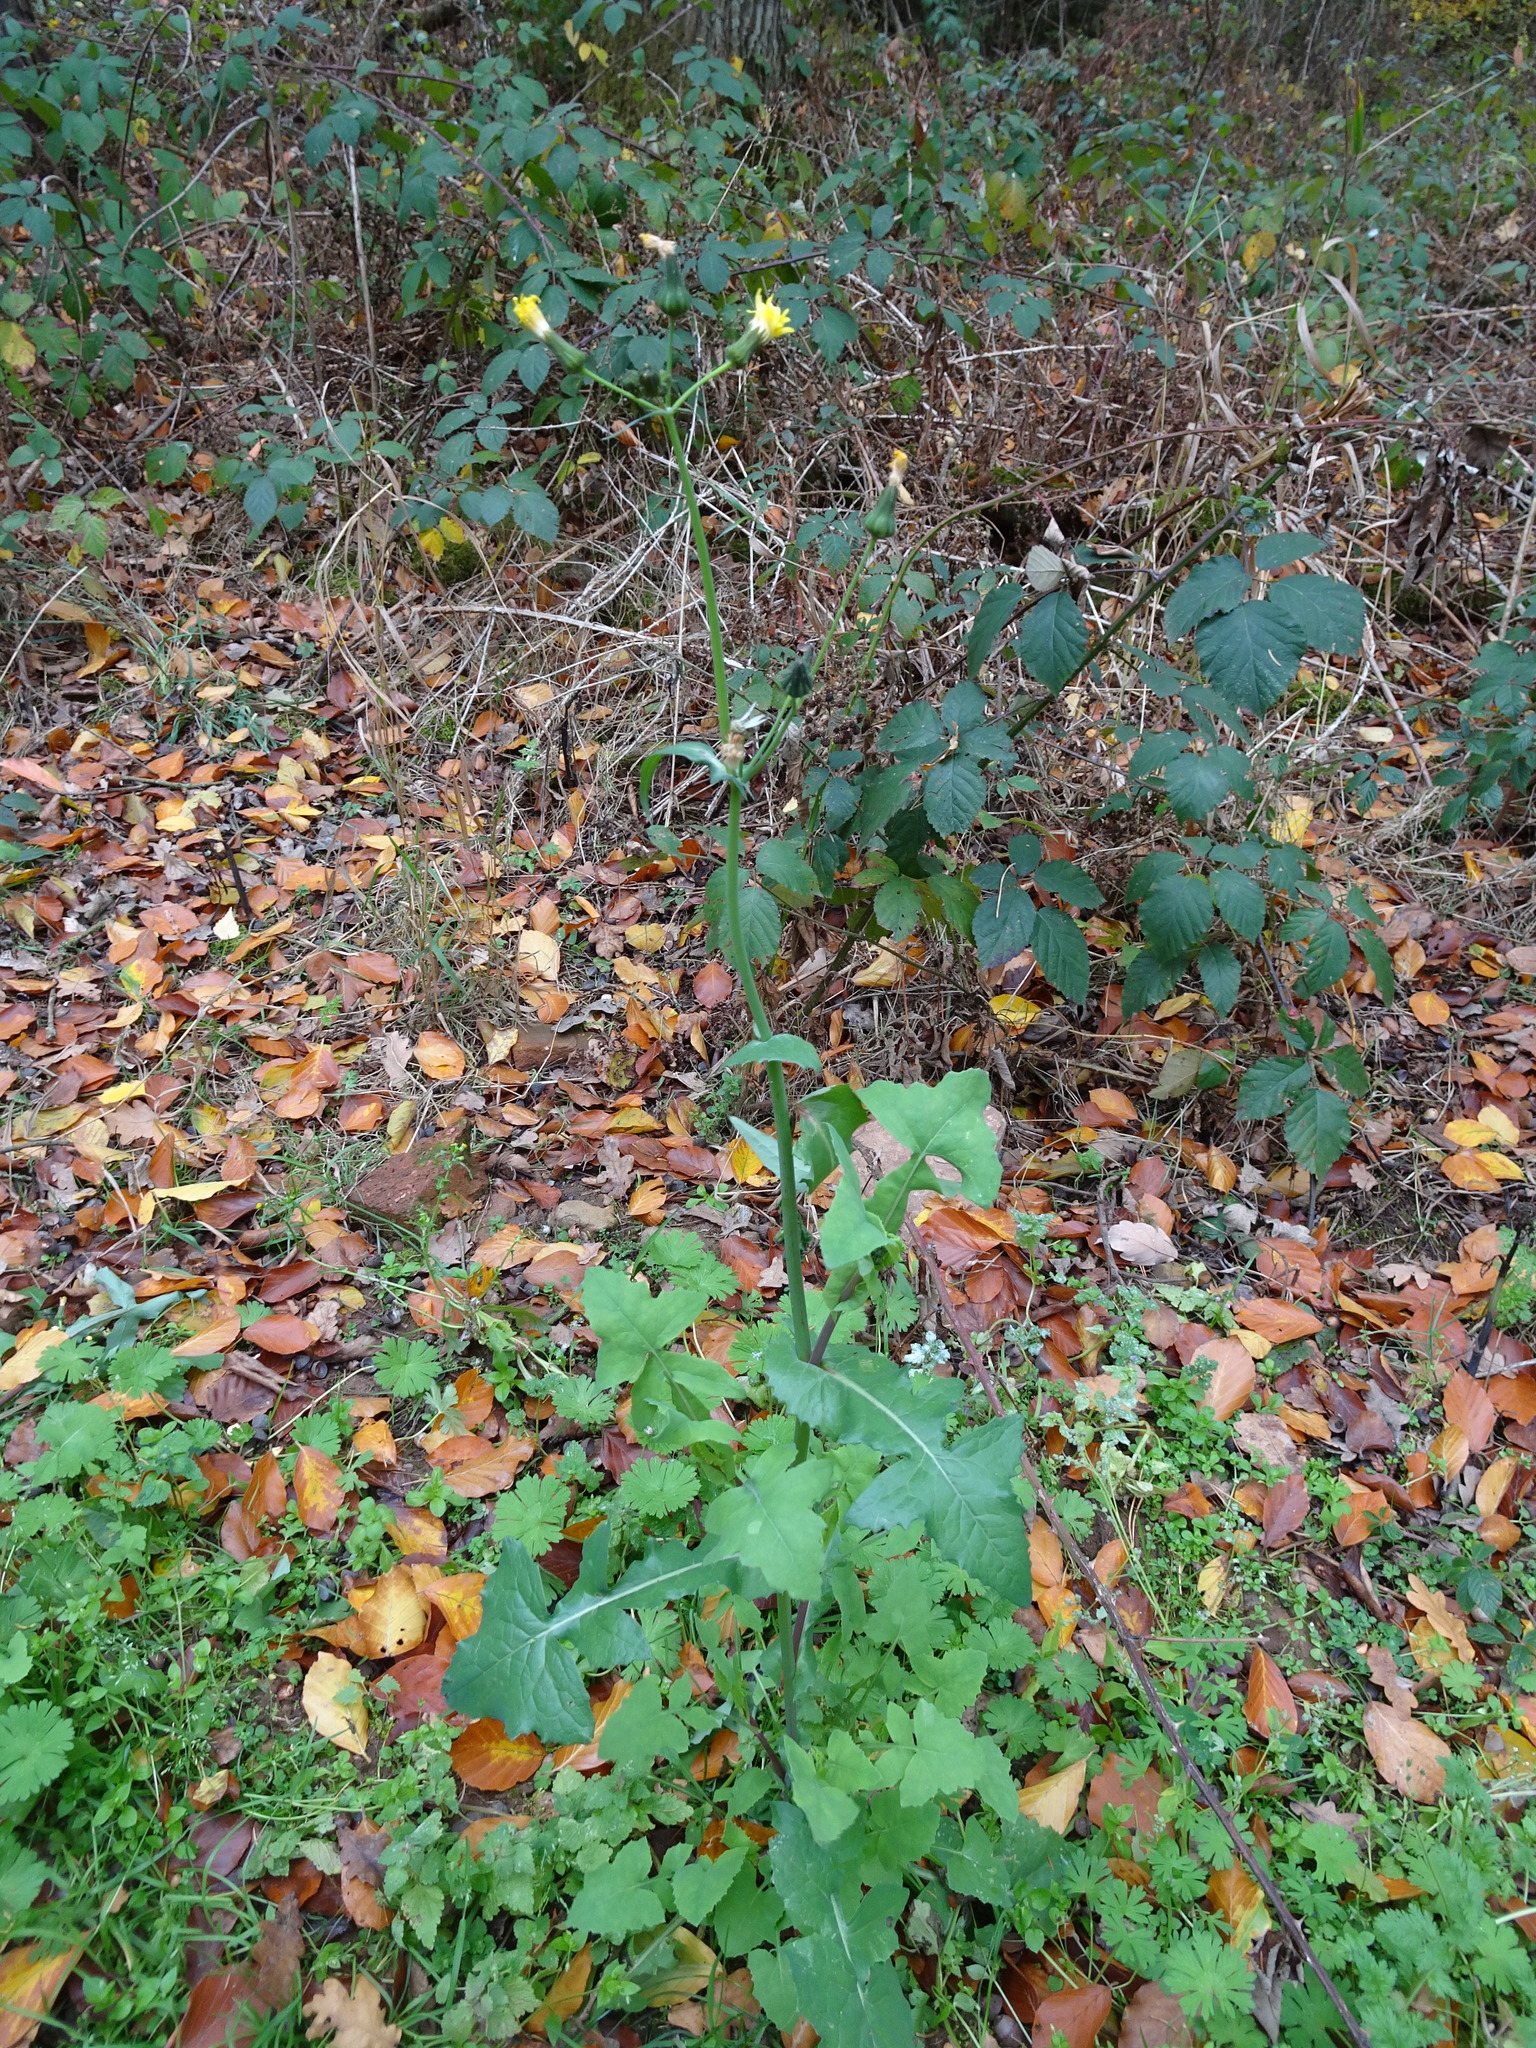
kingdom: Plantae
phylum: Tracheophyta
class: Magnoliopsida
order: Asterales
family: Asteraceae
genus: Sonchus
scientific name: Sonchus oleraceus
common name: Common sowthistle
